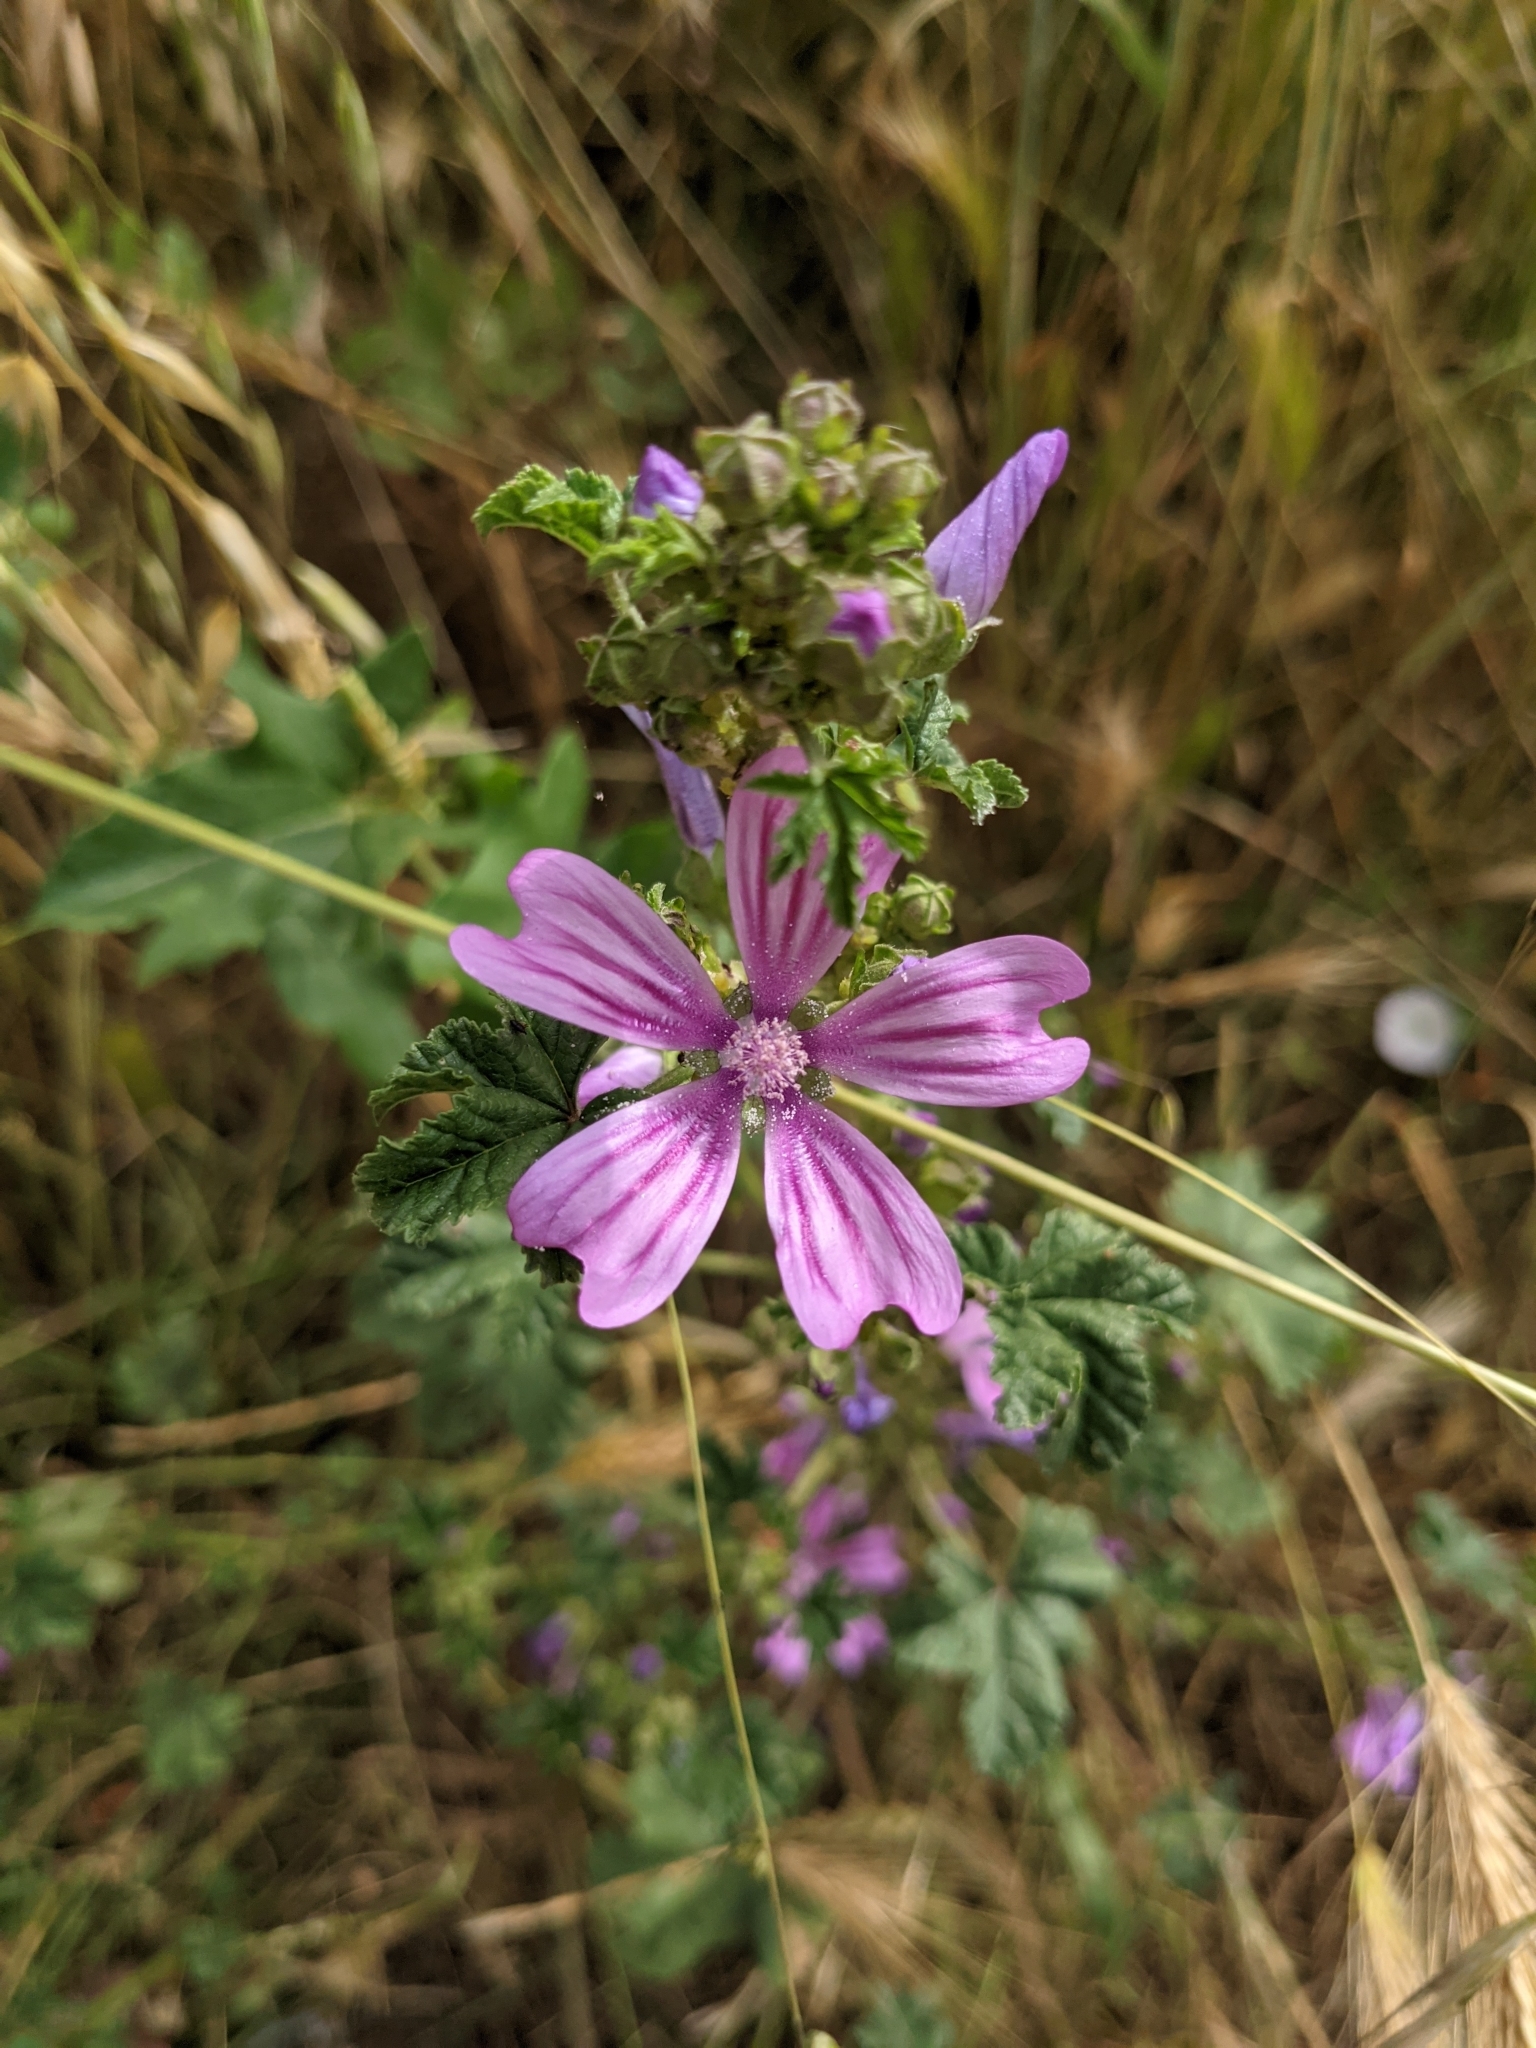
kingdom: Plantae
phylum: Tracheophyta
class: Magnoliopsida
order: Malvales
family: Malvaceae
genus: Malva
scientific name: Malva sylvestris
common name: Common mallow
